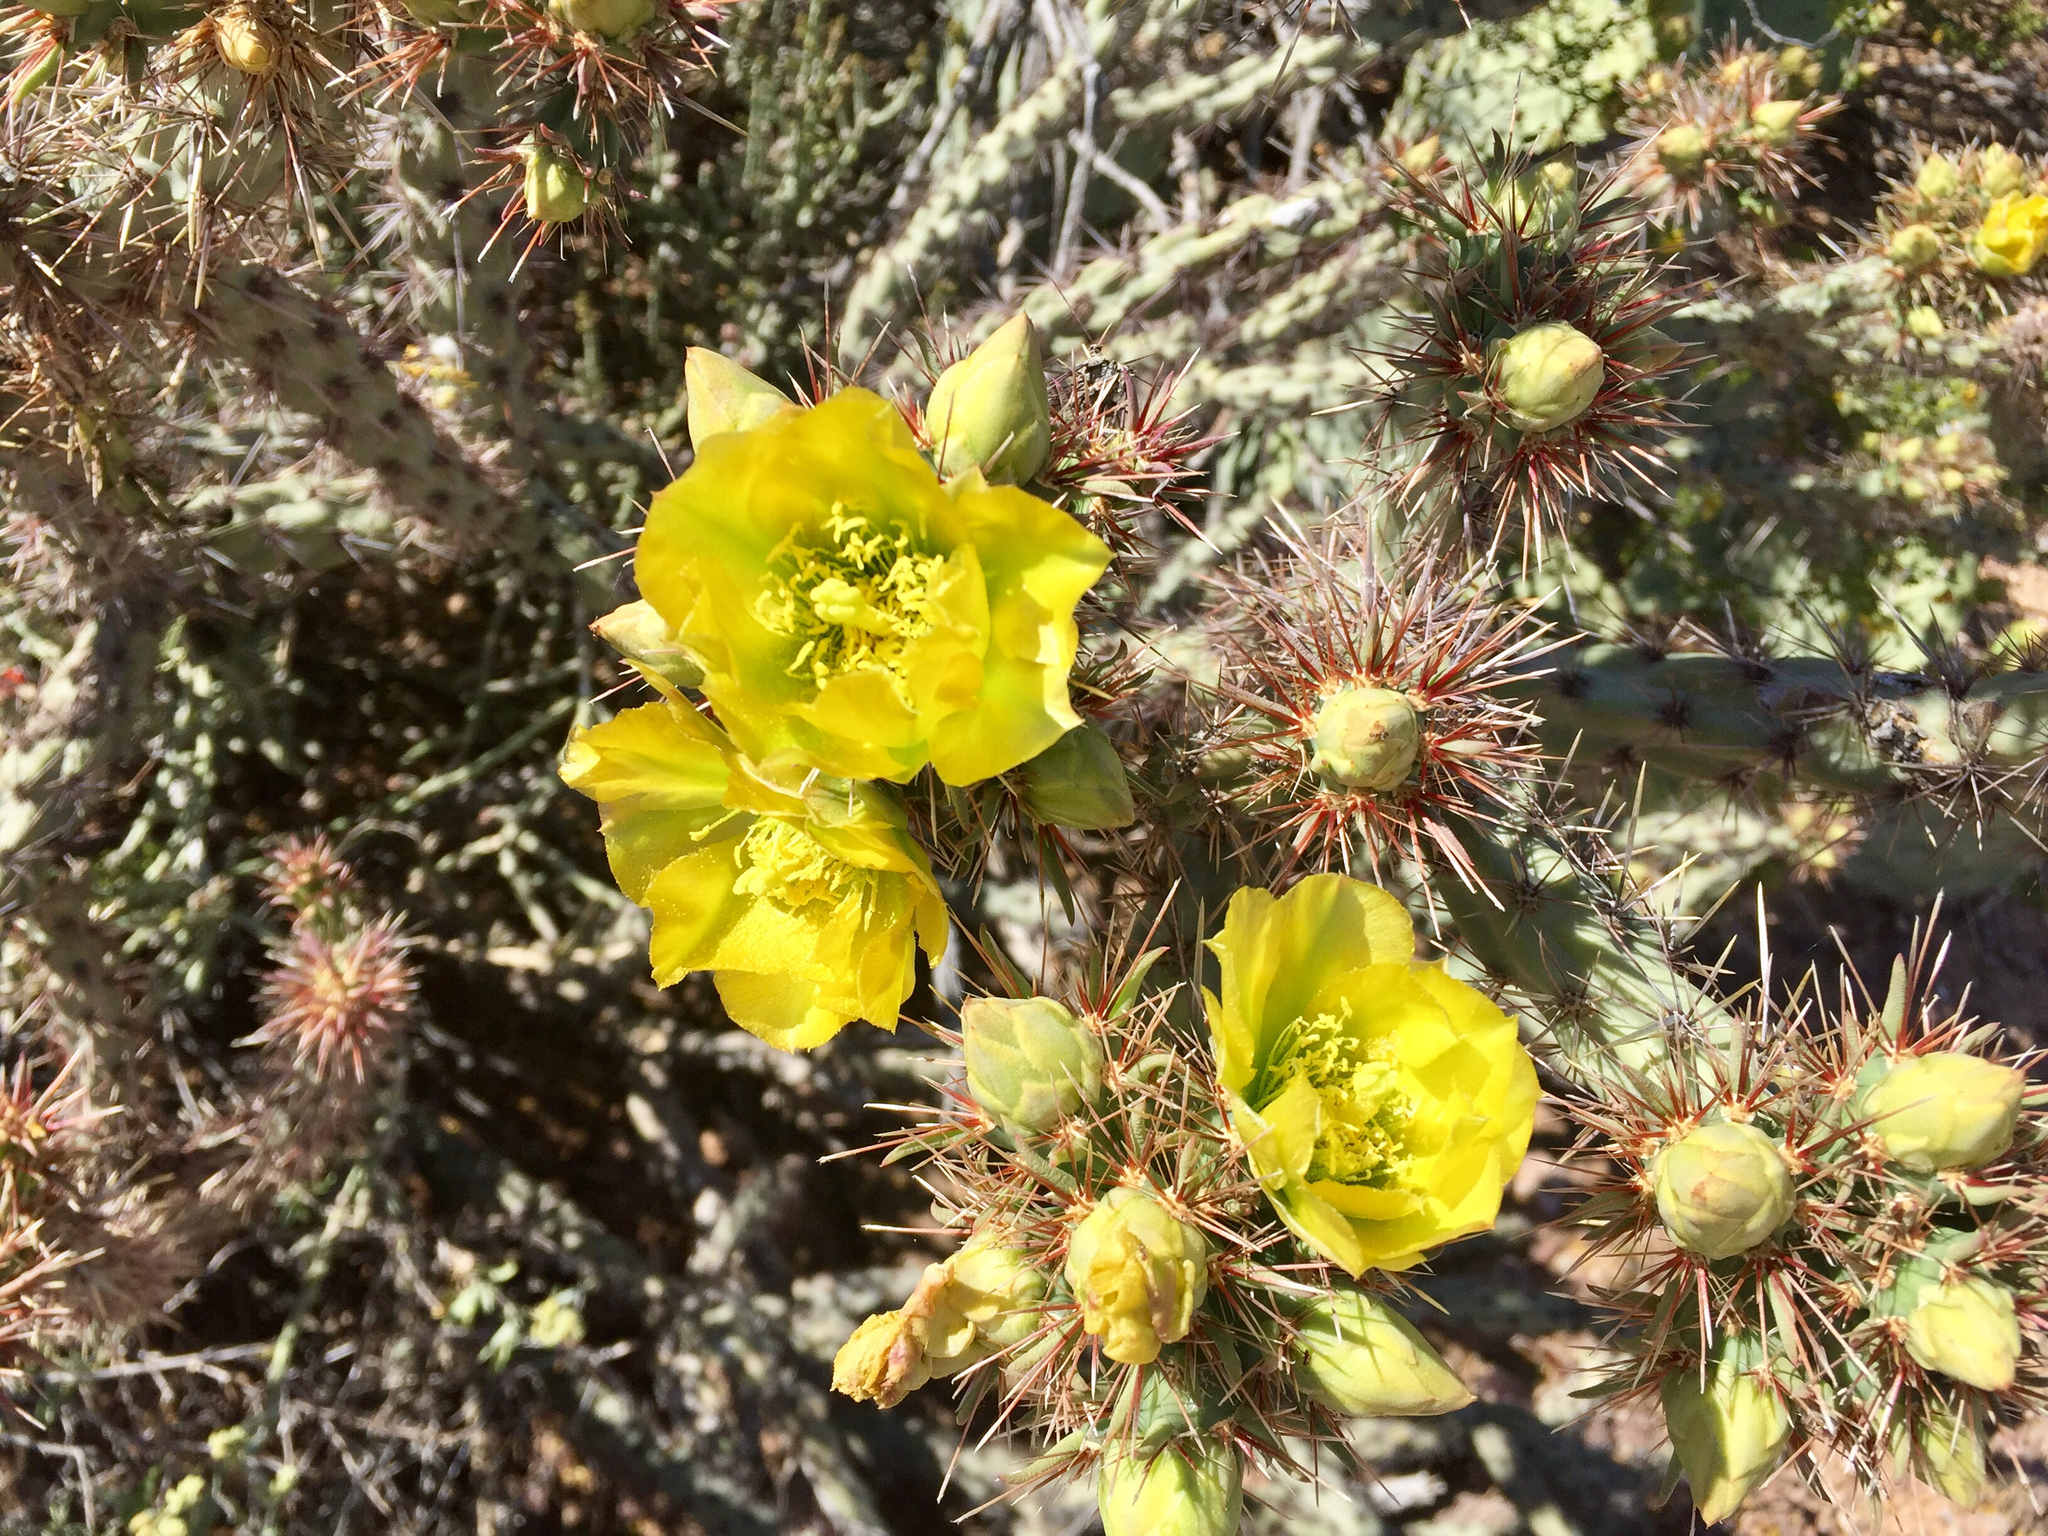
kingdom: Plantae
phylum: Tracheophyta
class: Magnoliopsida
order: Caryophyllales
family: Cactaceae
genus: Cylindropuntia
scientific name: Cylindropuntia thurberi
